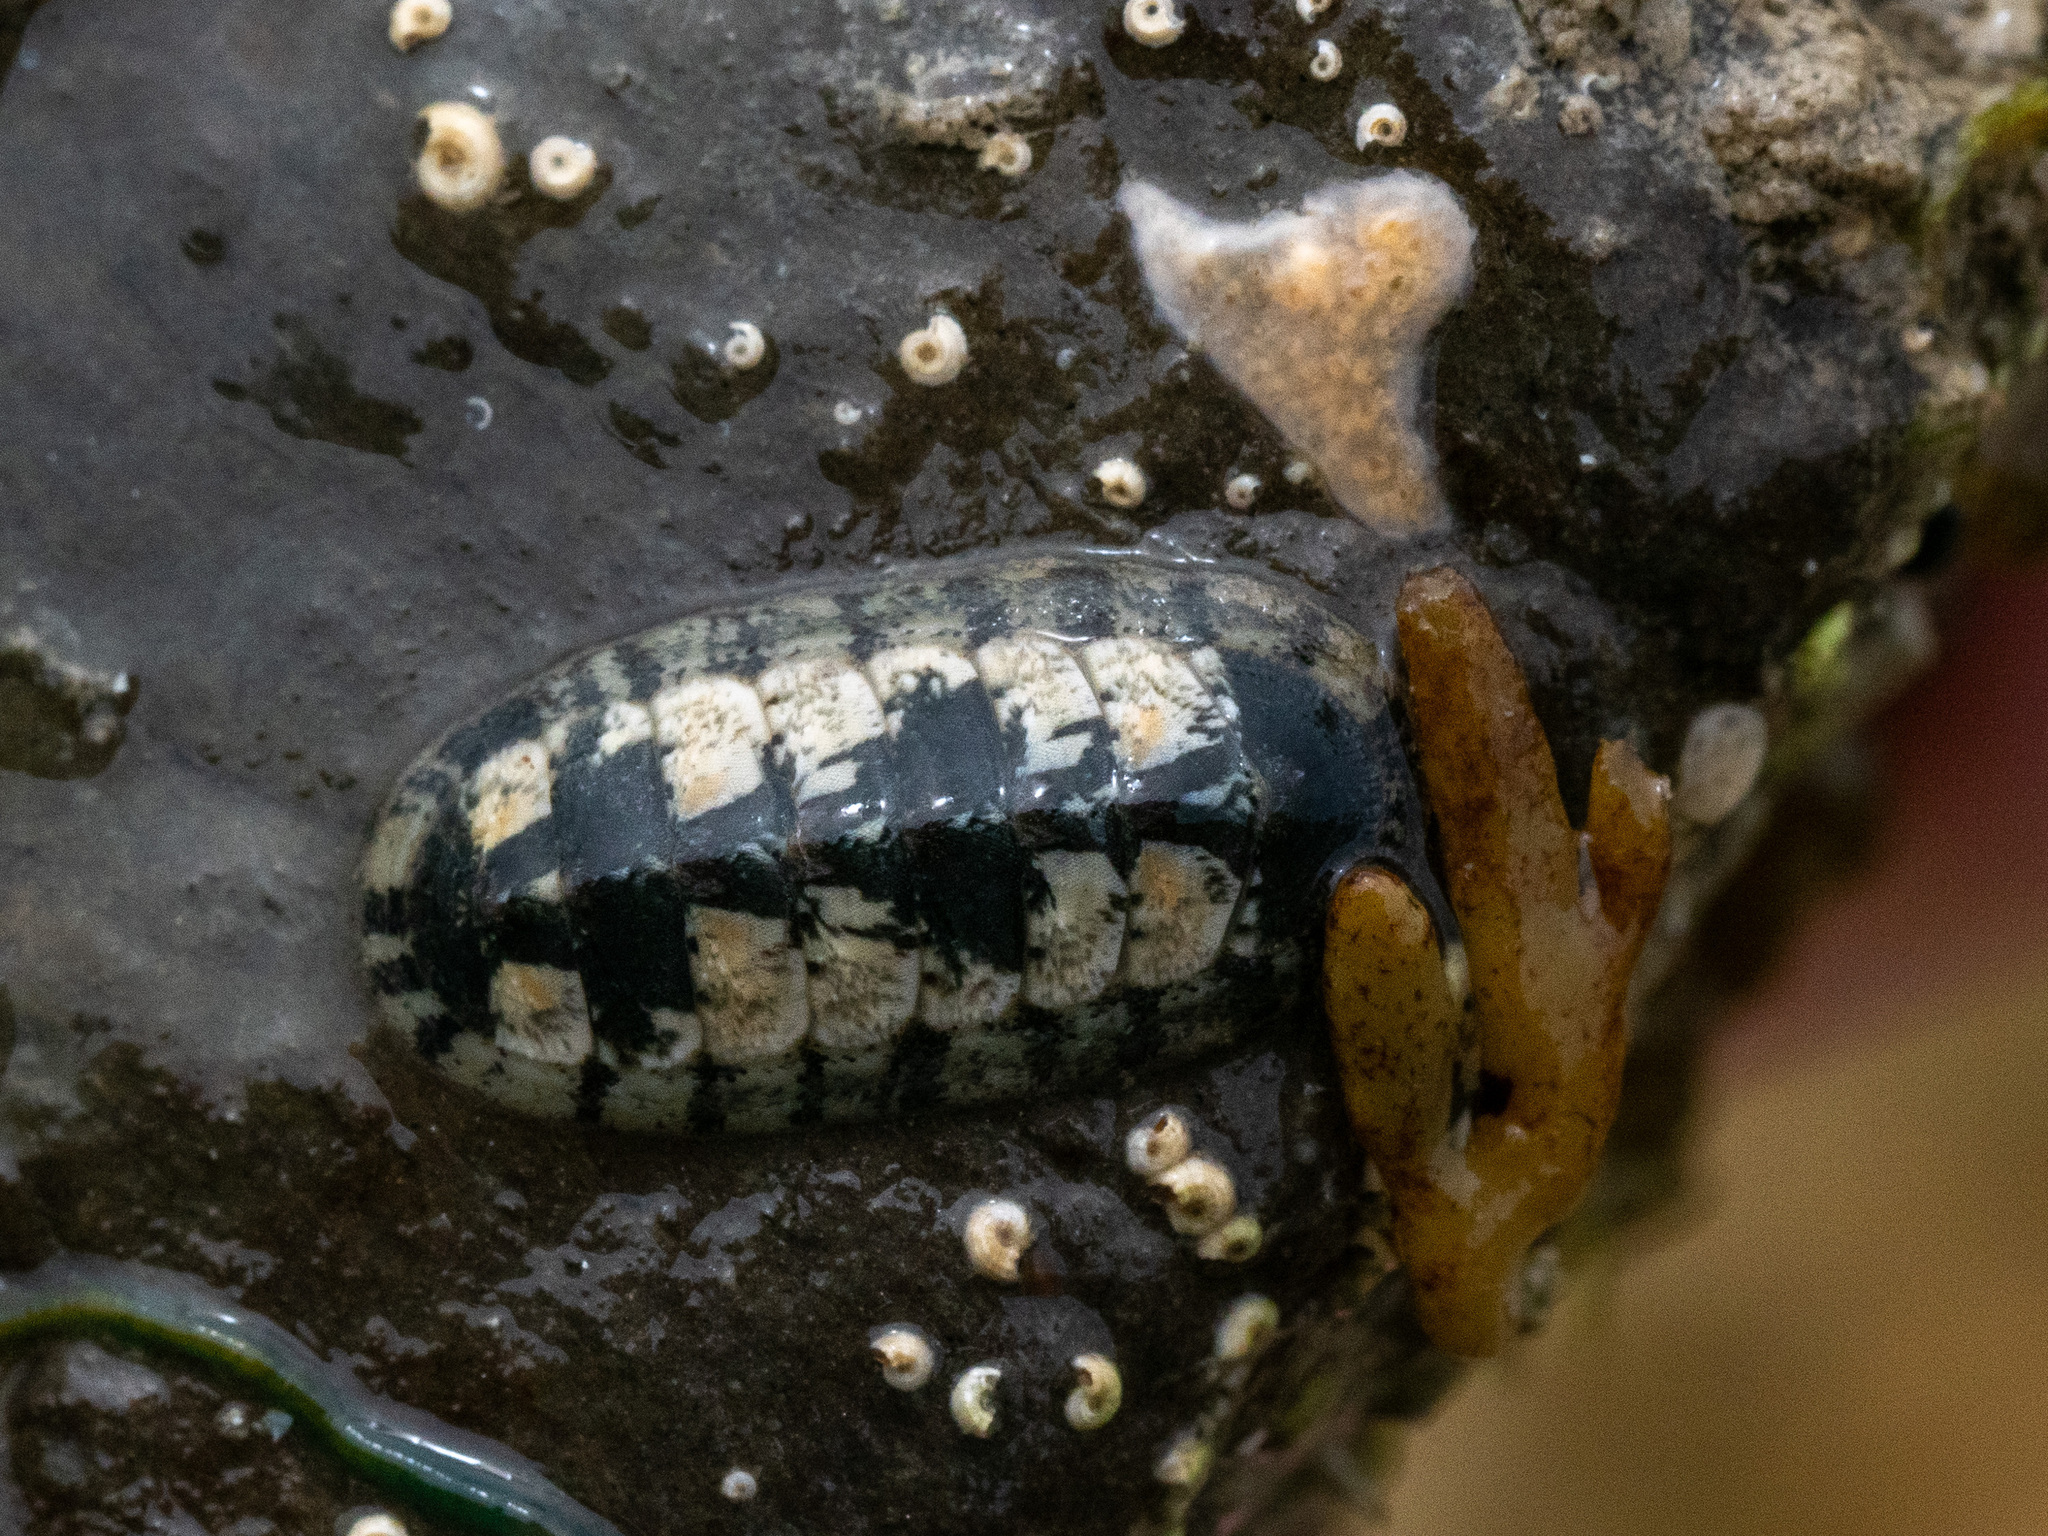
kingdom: Animalia
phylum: Mollusca
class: Polyplacophora
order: Chitonida
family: Ischnochitonidae
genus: Ischnochiton
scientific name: Ischnochiton maorianus
